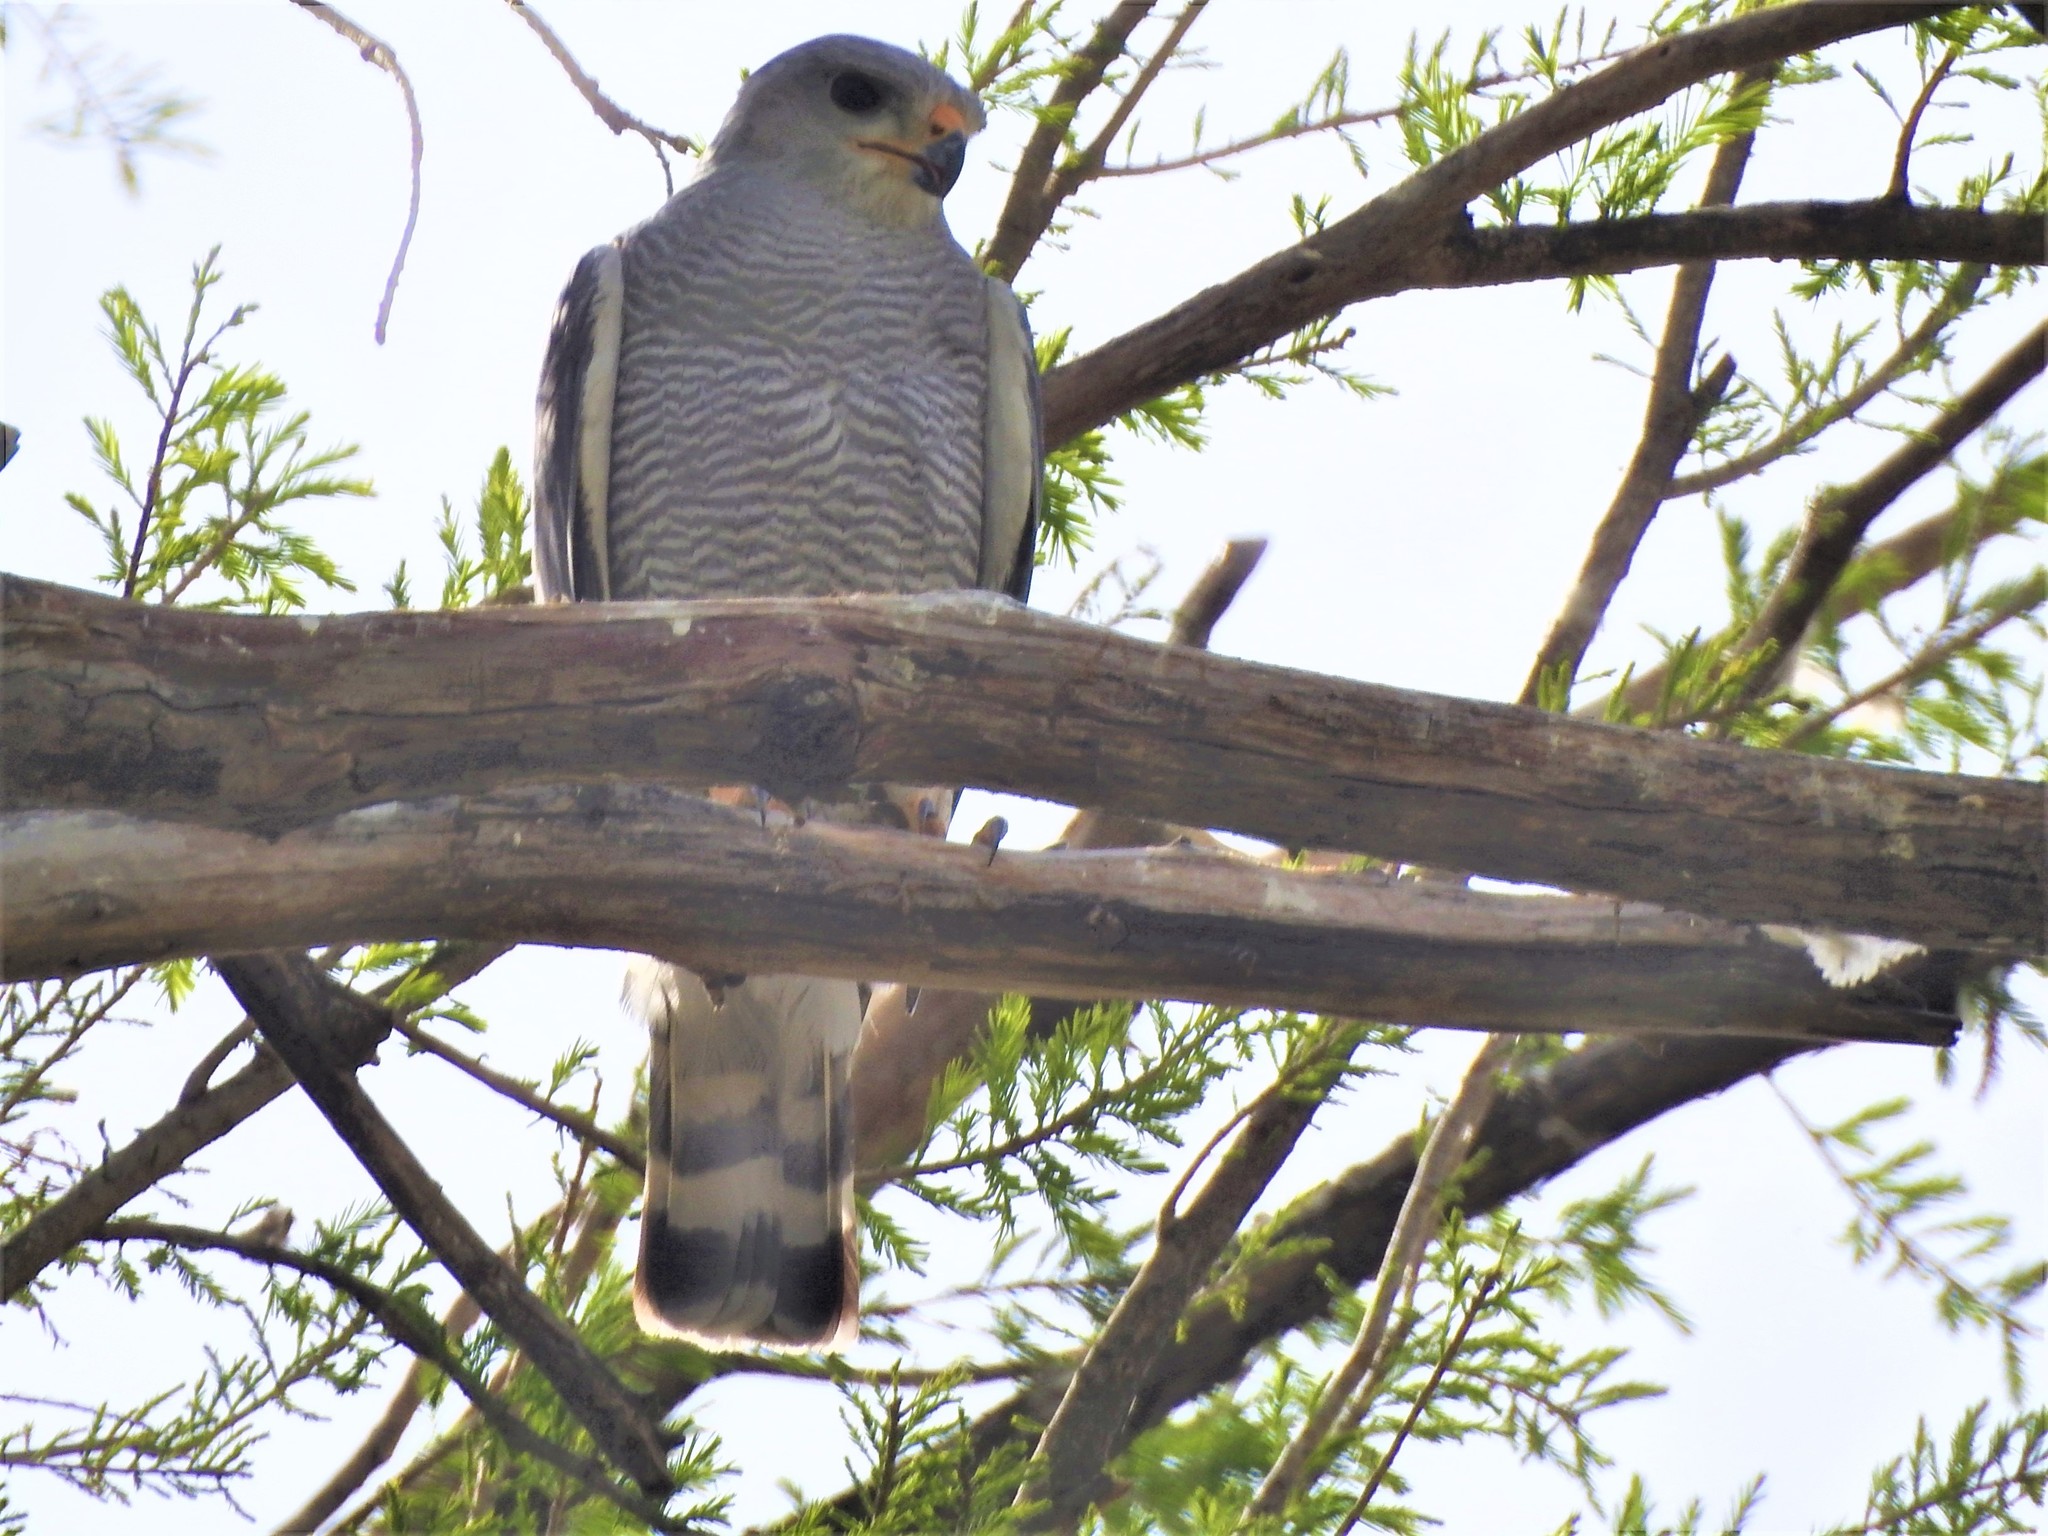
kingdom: Animalia
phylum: Chordata
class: Aves
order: Accipitriformes
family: Accipitridae
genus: Buteo
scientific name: Buteo nitidus
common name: Grey-lined hawk
